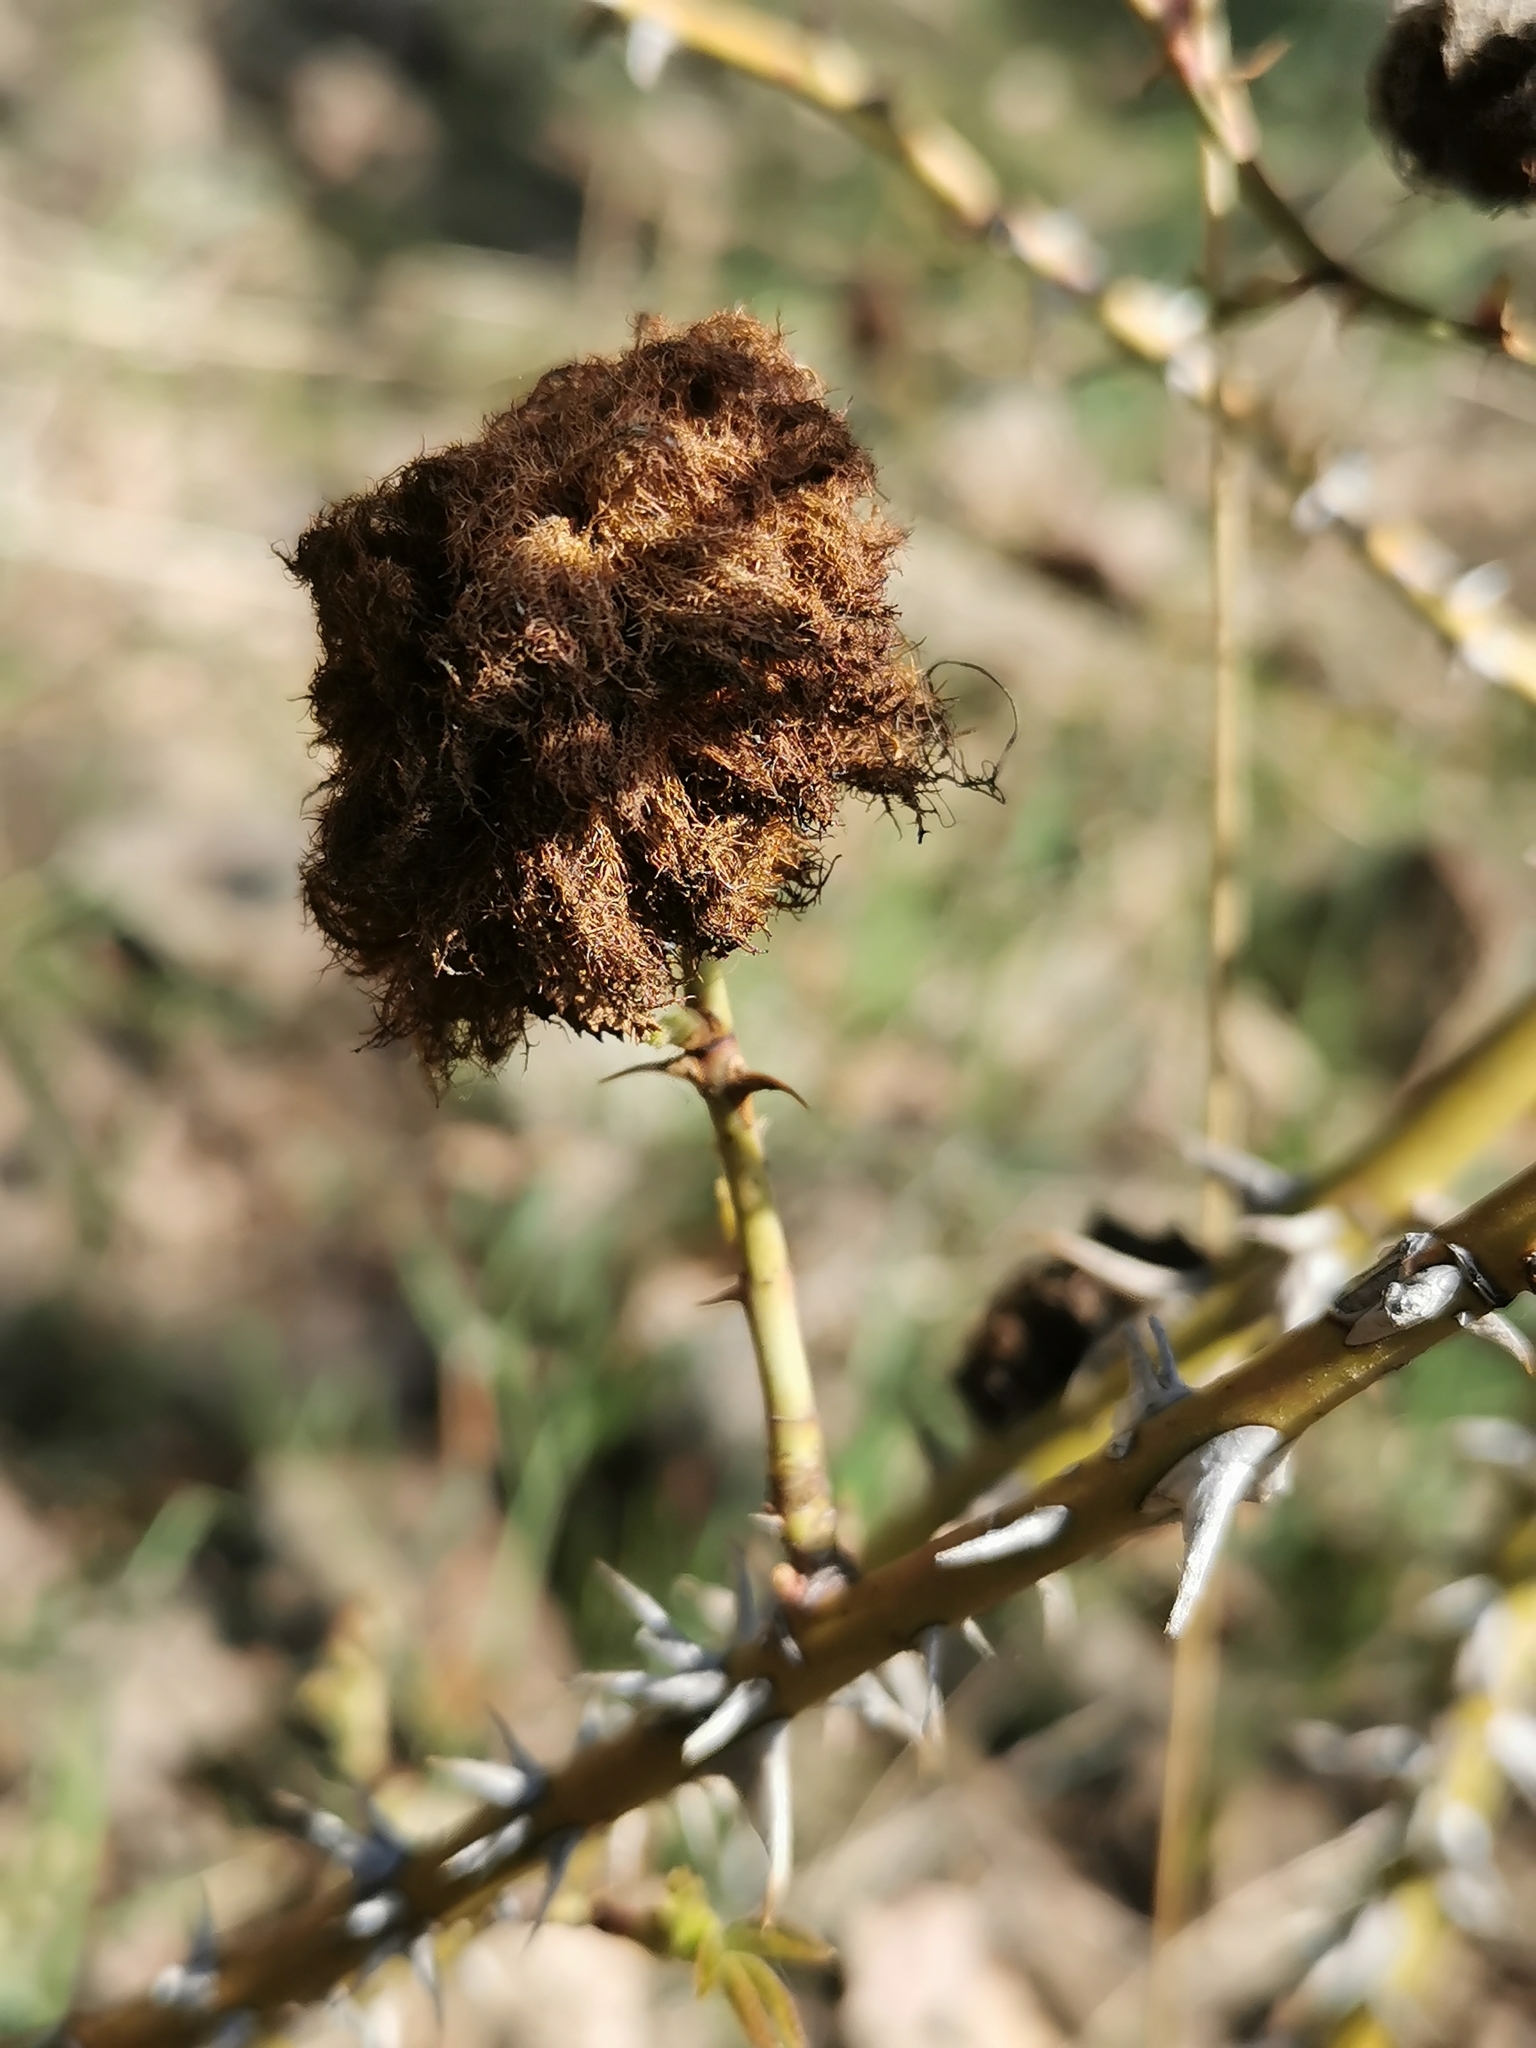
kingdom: Animalia
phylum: Arthropoda
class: Insecta
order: Hymenoptera
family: Cynipidae
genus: Diplolepis
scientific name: Diplolepis rosae
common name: Bedeguar gall
